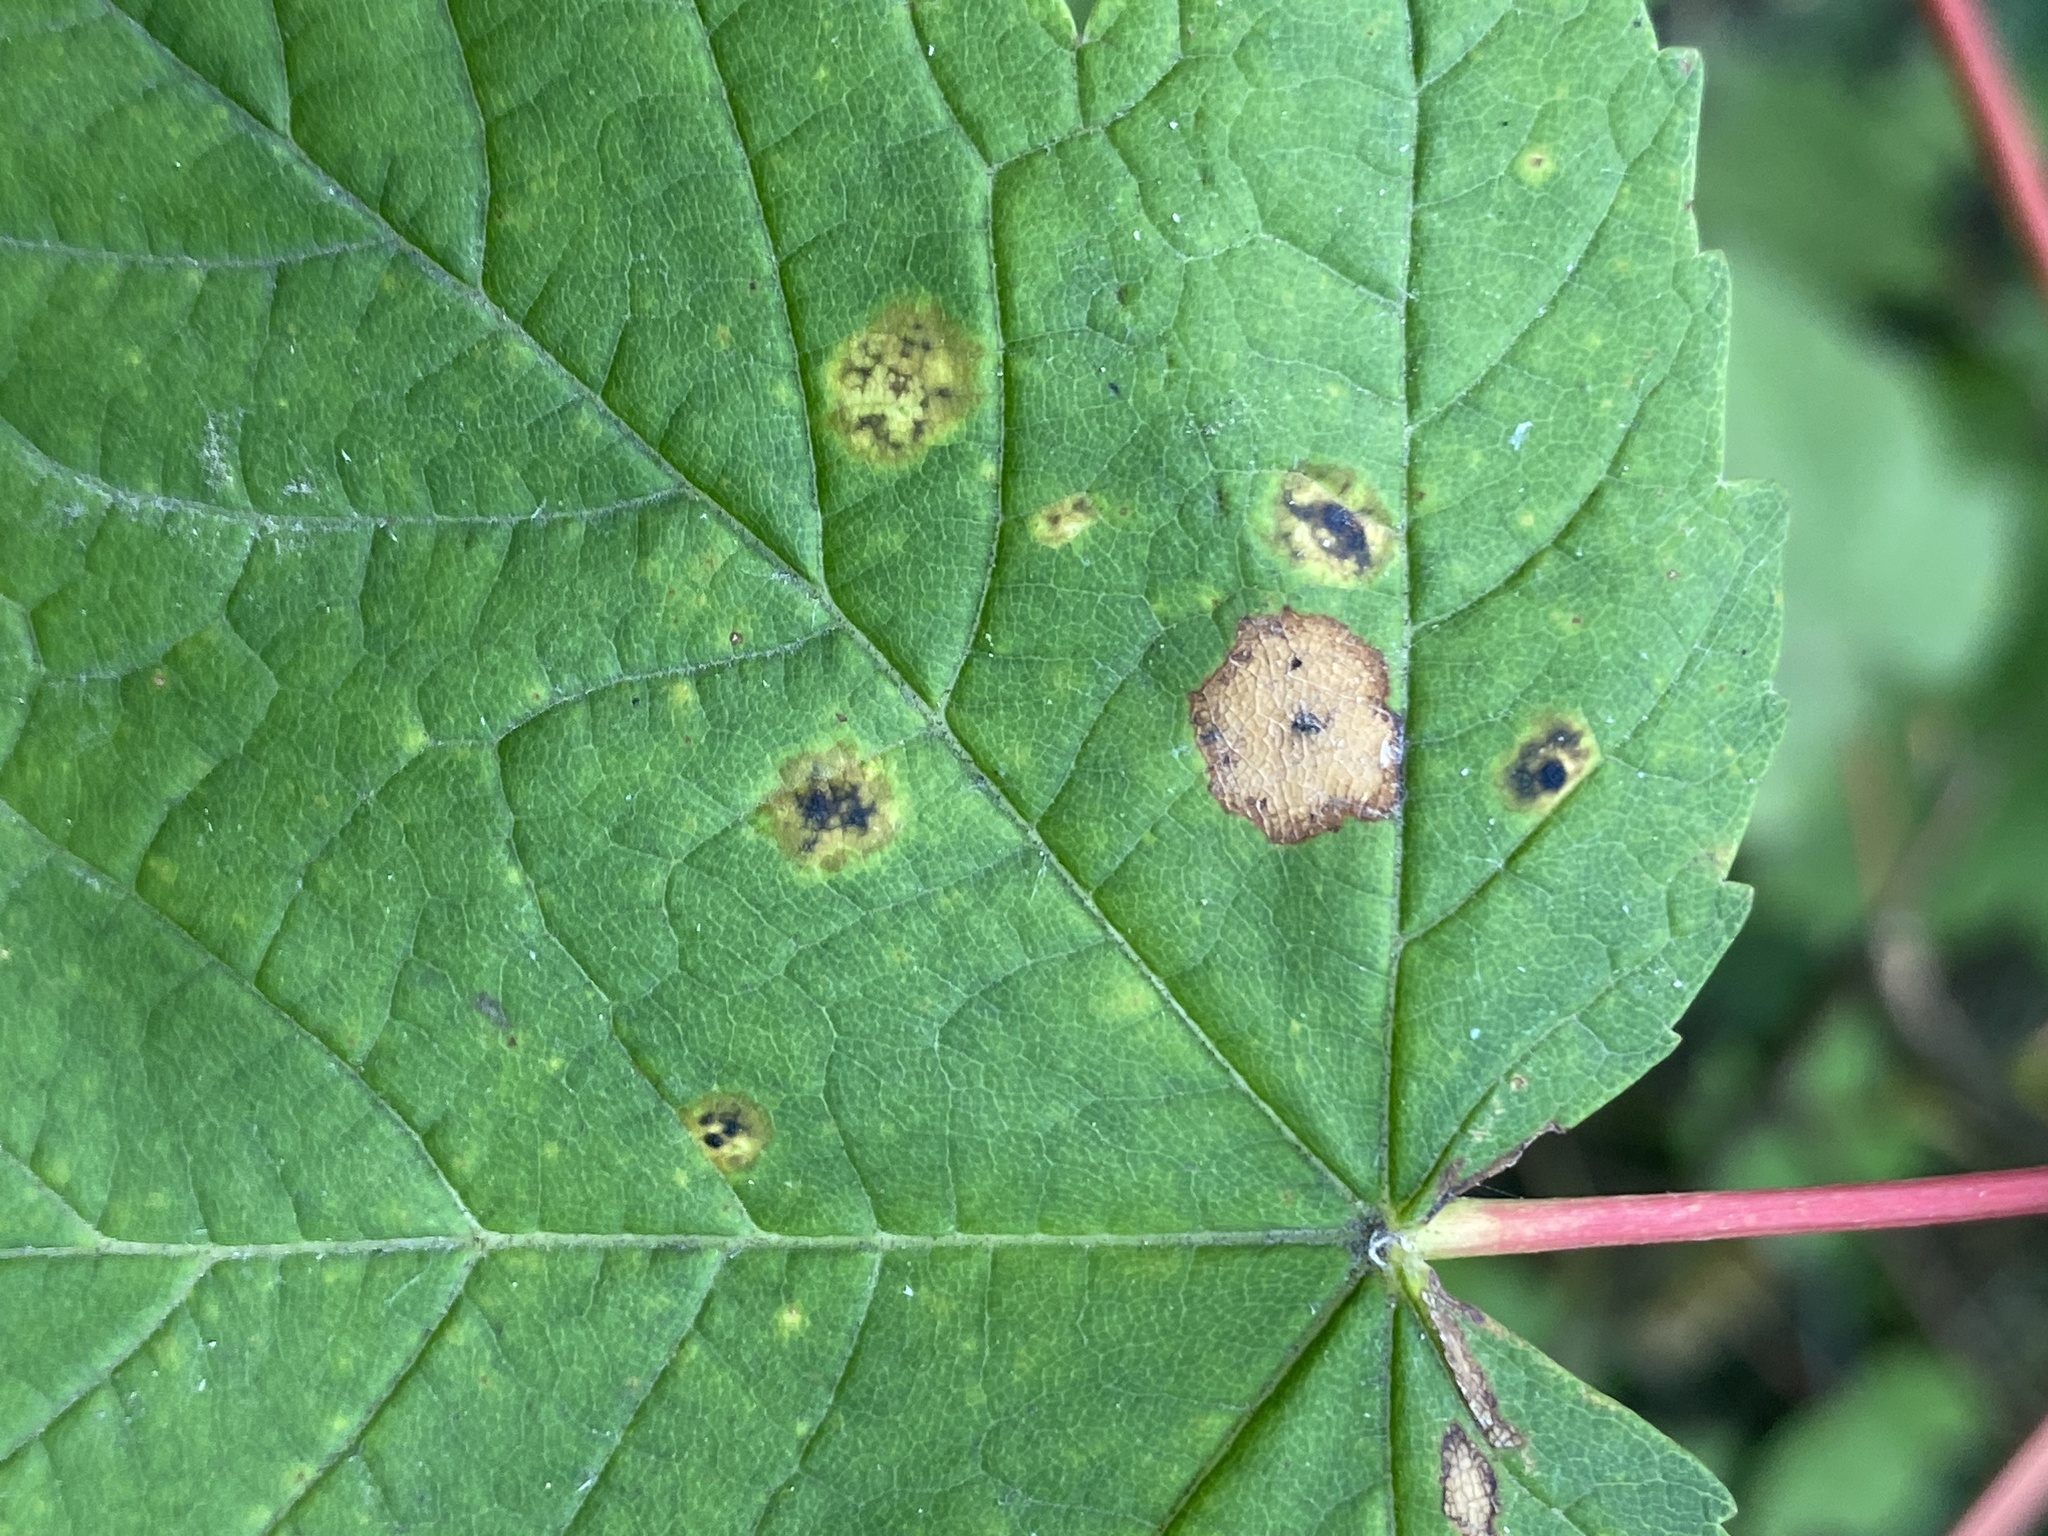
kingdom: Fungi
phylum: Ascomycota
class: Leotiomycetes
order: Rhytismatales
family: Rhytismataceae
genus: Rhytisma
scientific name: Rhytisma acerinum
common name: European tar spot
